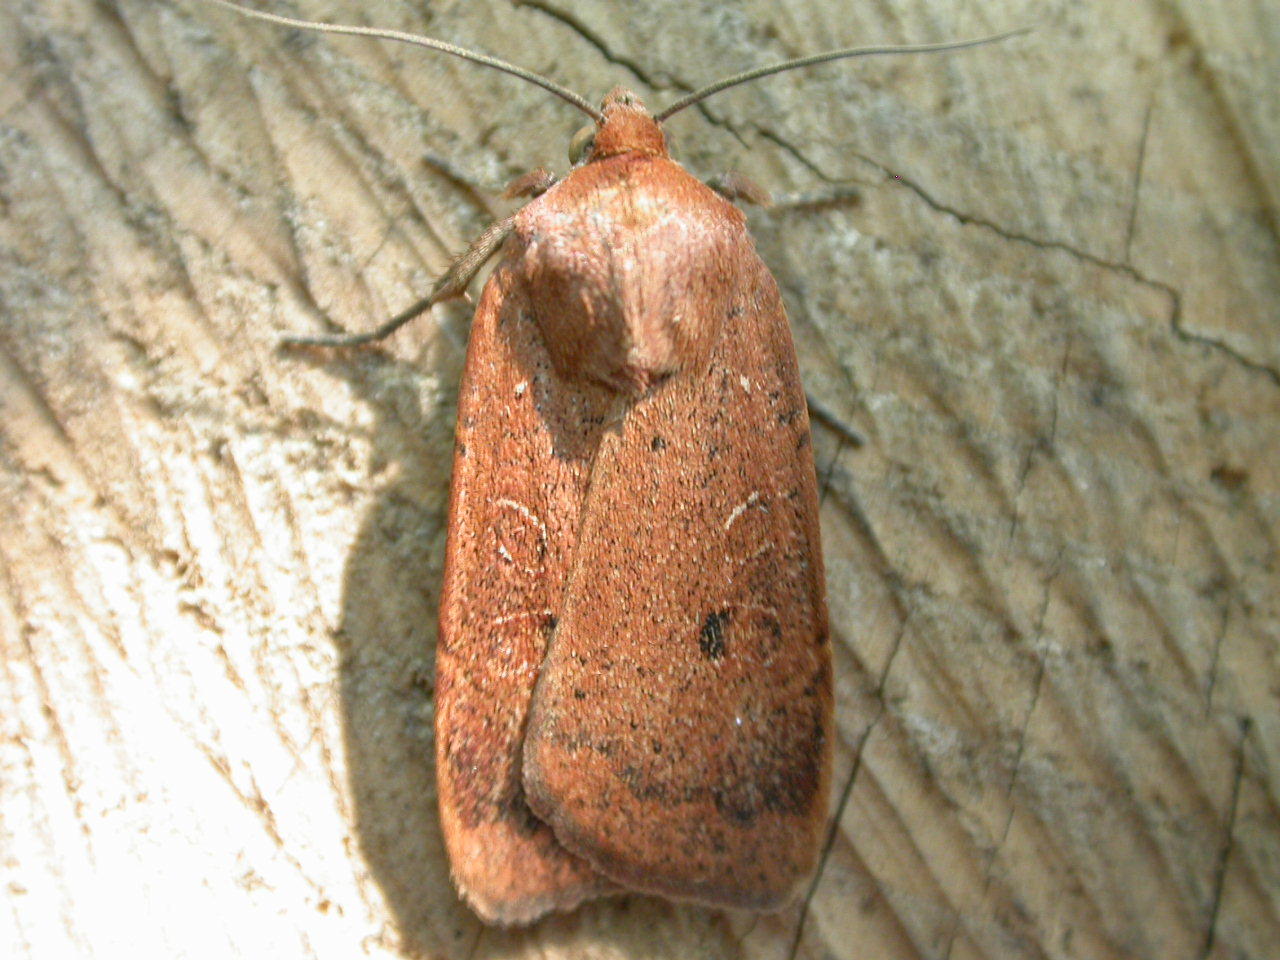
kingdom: Animalia
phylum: Arthropoda
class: Insecta
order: Lepidoptera
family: Noctuidae
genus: Noctua
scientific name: Noctua comes
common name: Lesser yellow underwing
